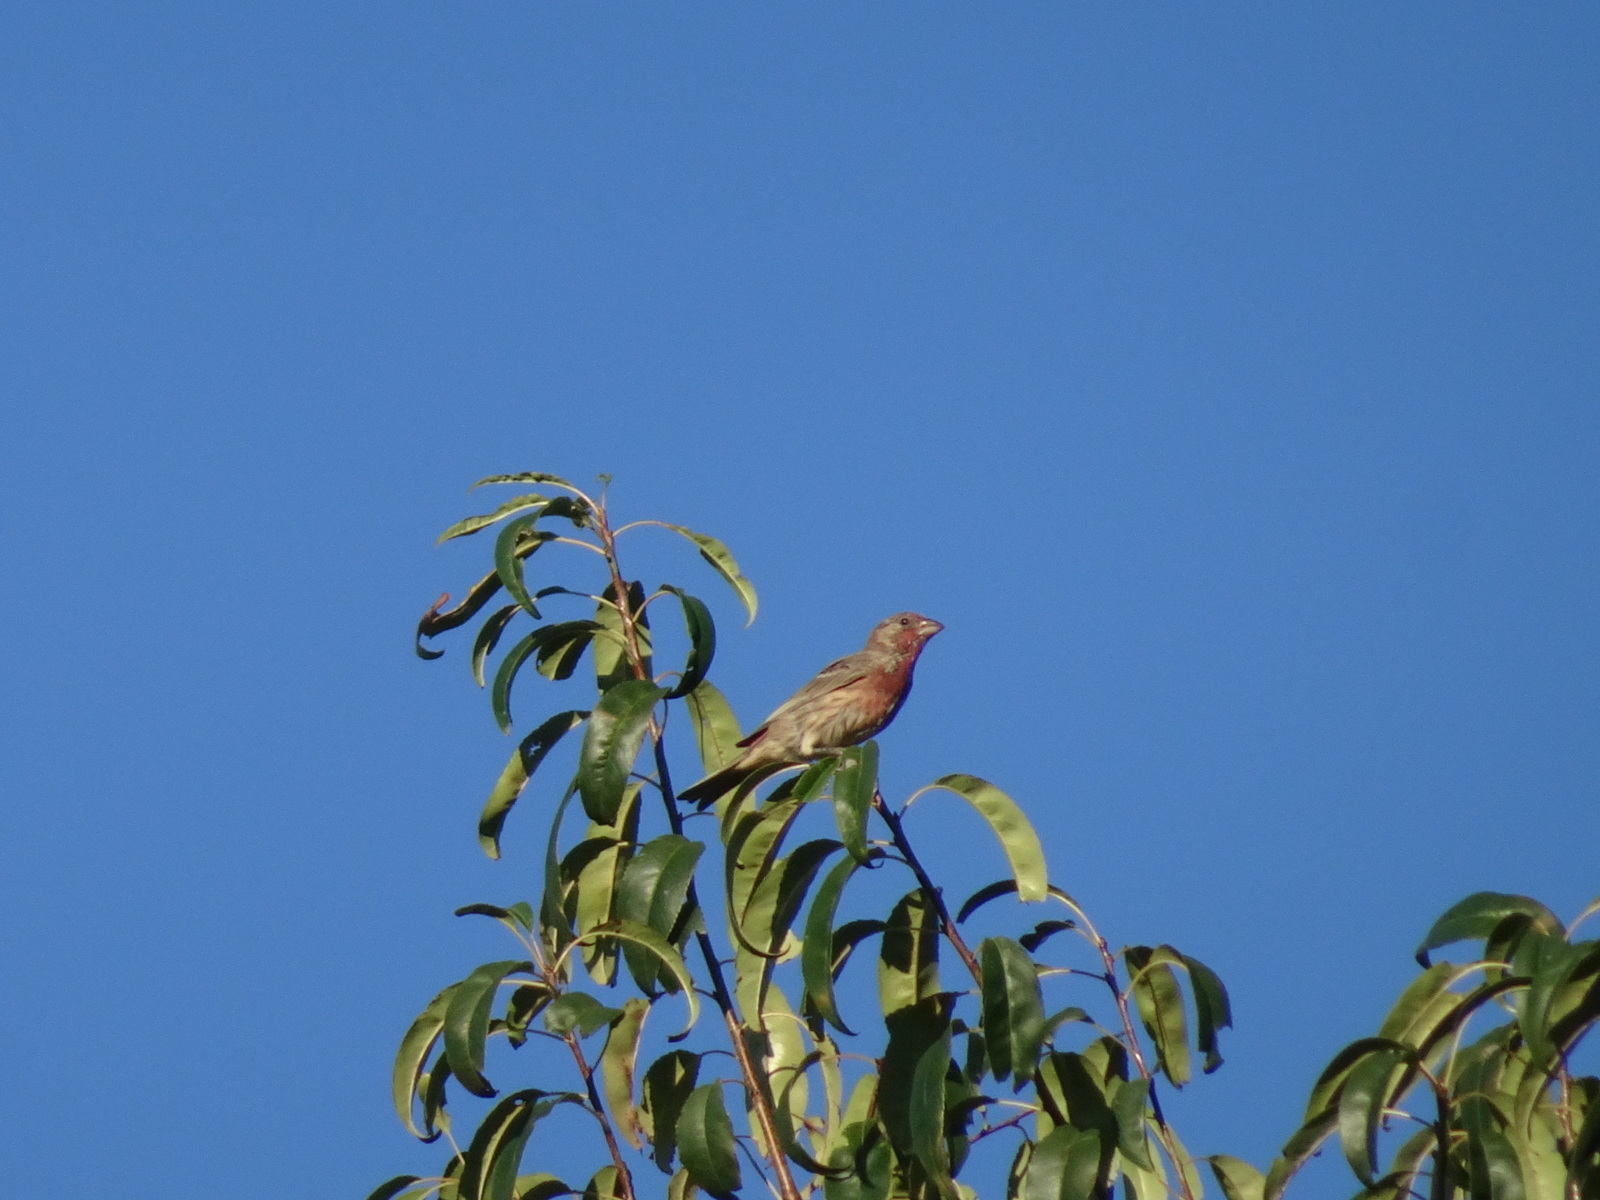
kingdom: Animalia
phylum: Chordata
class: Aves
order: Passeriformes
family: Fringillidae
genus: Haemorhous
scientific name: Haemorhous mexicanus
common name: House finch
